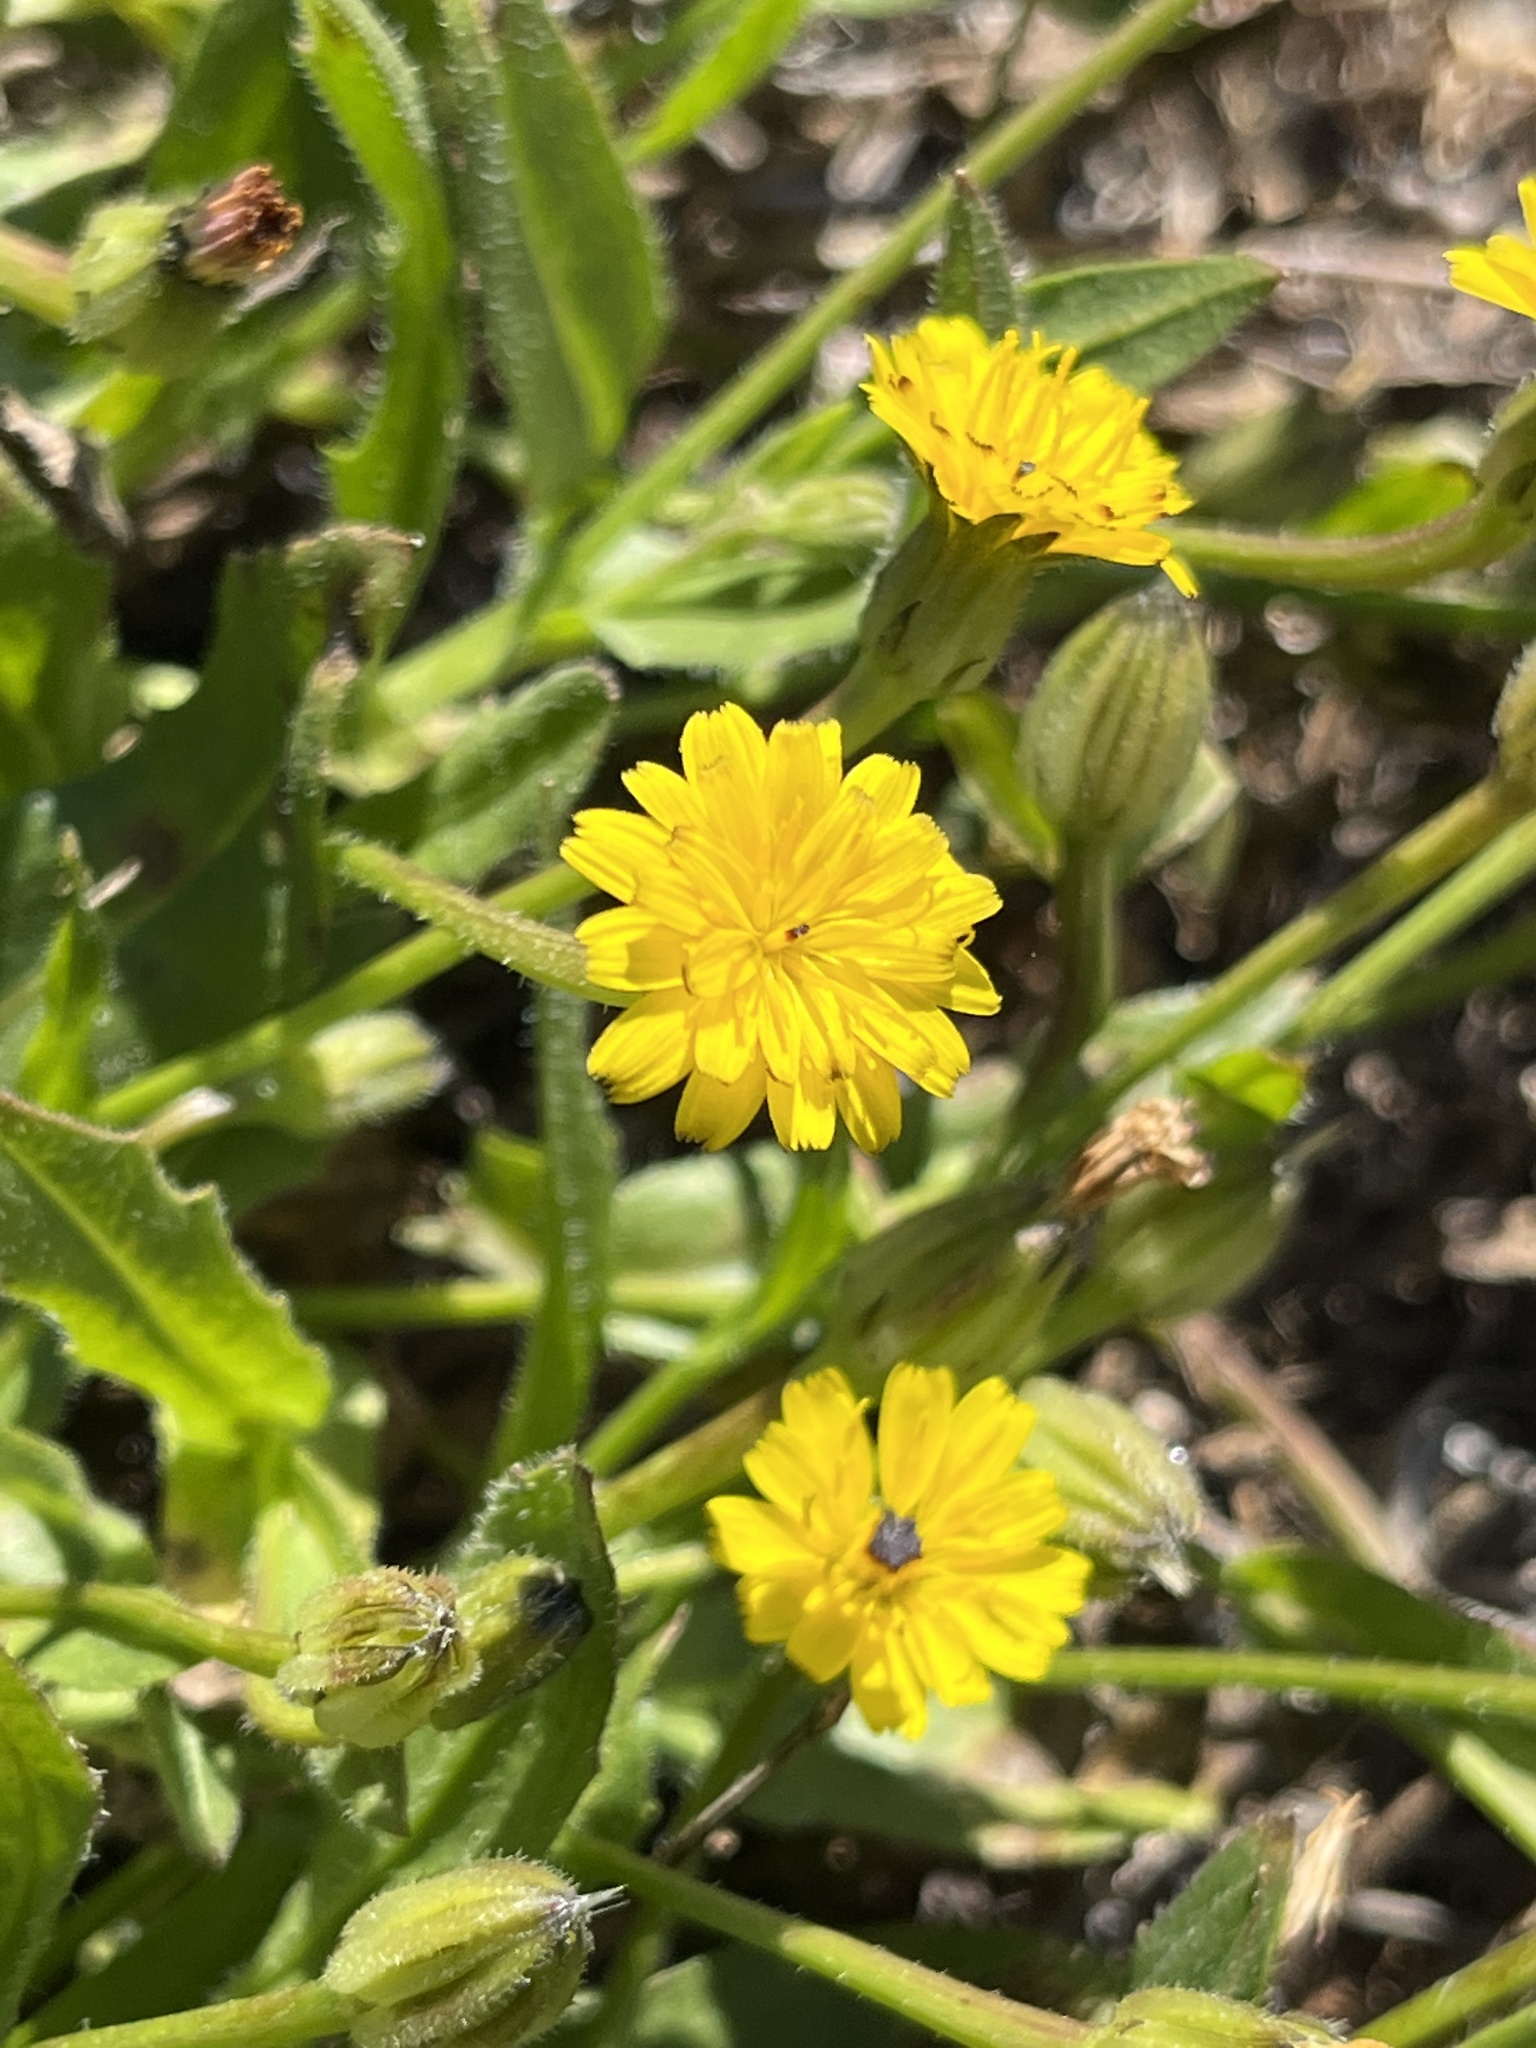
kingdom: Plantae
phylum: Tracheophyta
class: Magnoliopsida
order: Asterales
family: Asteraceae
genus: Hedypnois
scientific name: Hedypnois rhagadioloides
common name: Cretan weed
